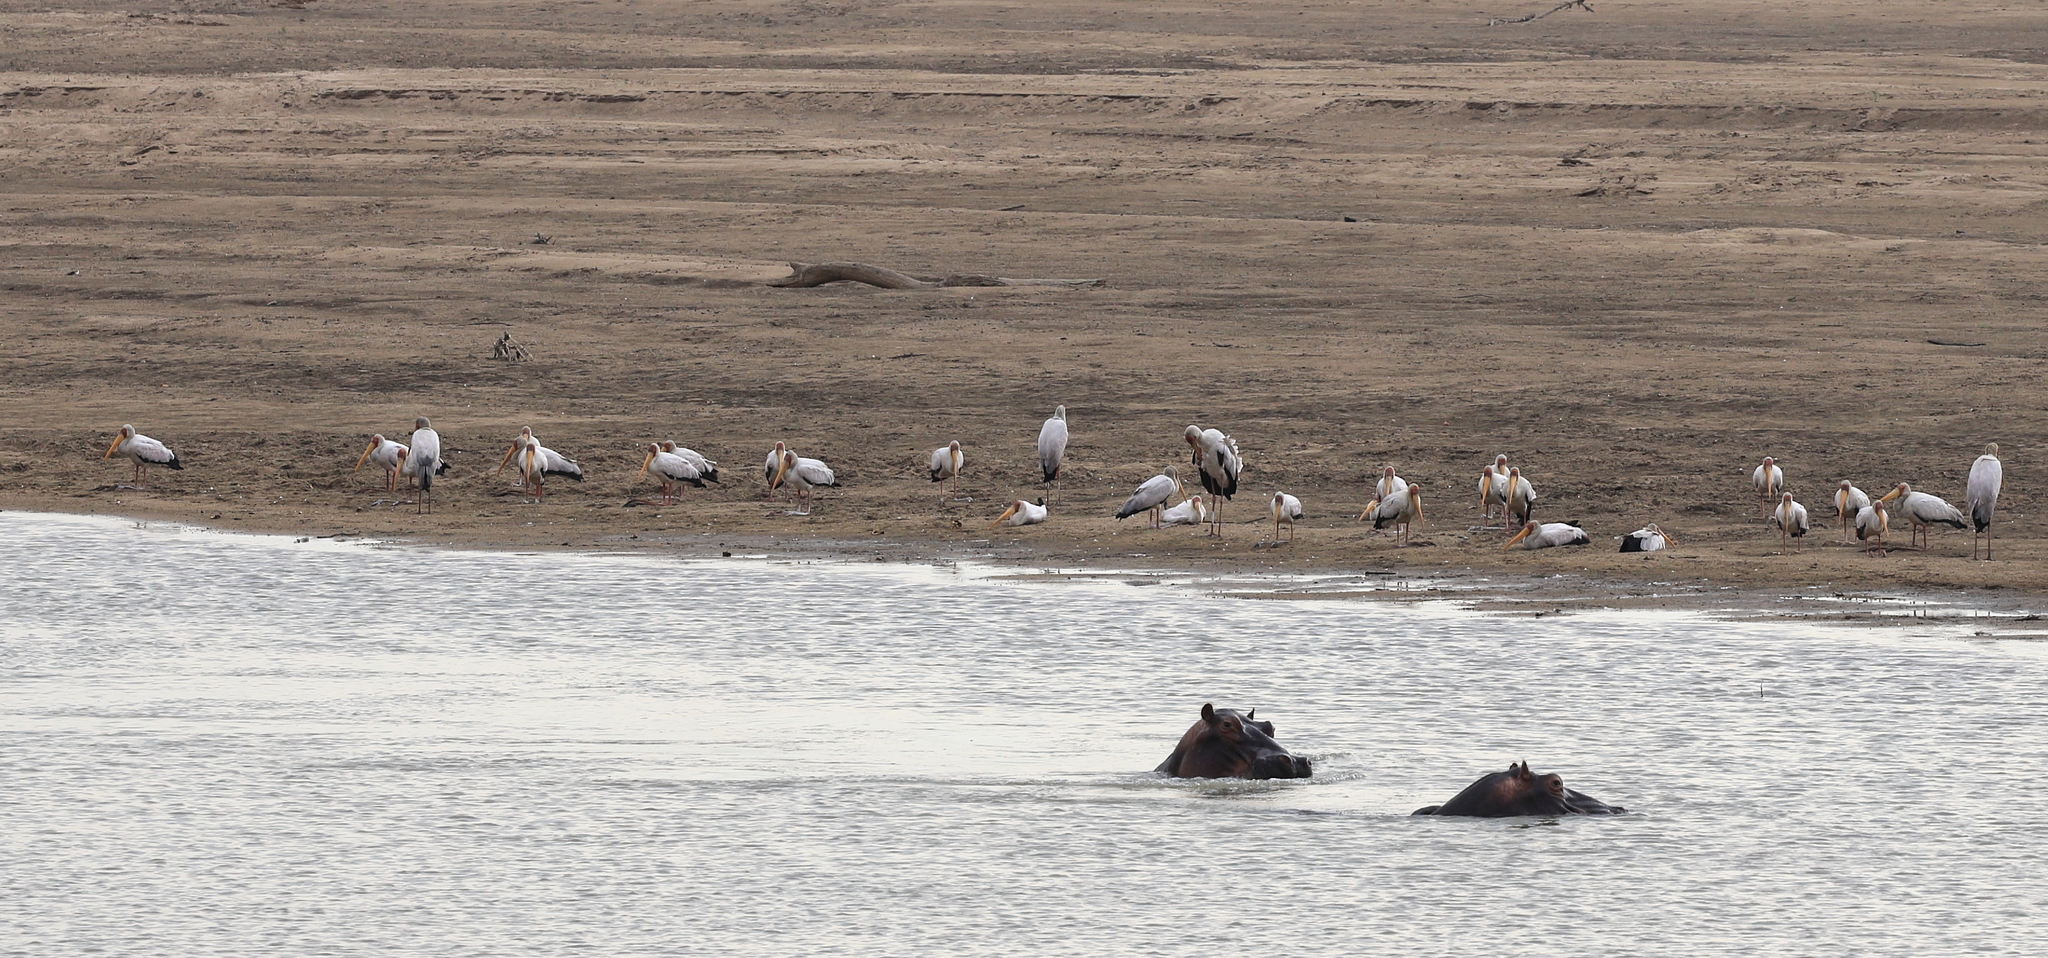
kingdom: Animalia
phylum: Chordata
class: Aves
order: Ciconiiformes
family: Ciconiidae
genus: Mycteria
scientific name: Mycteria ibis
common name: Yellow-billed stork
